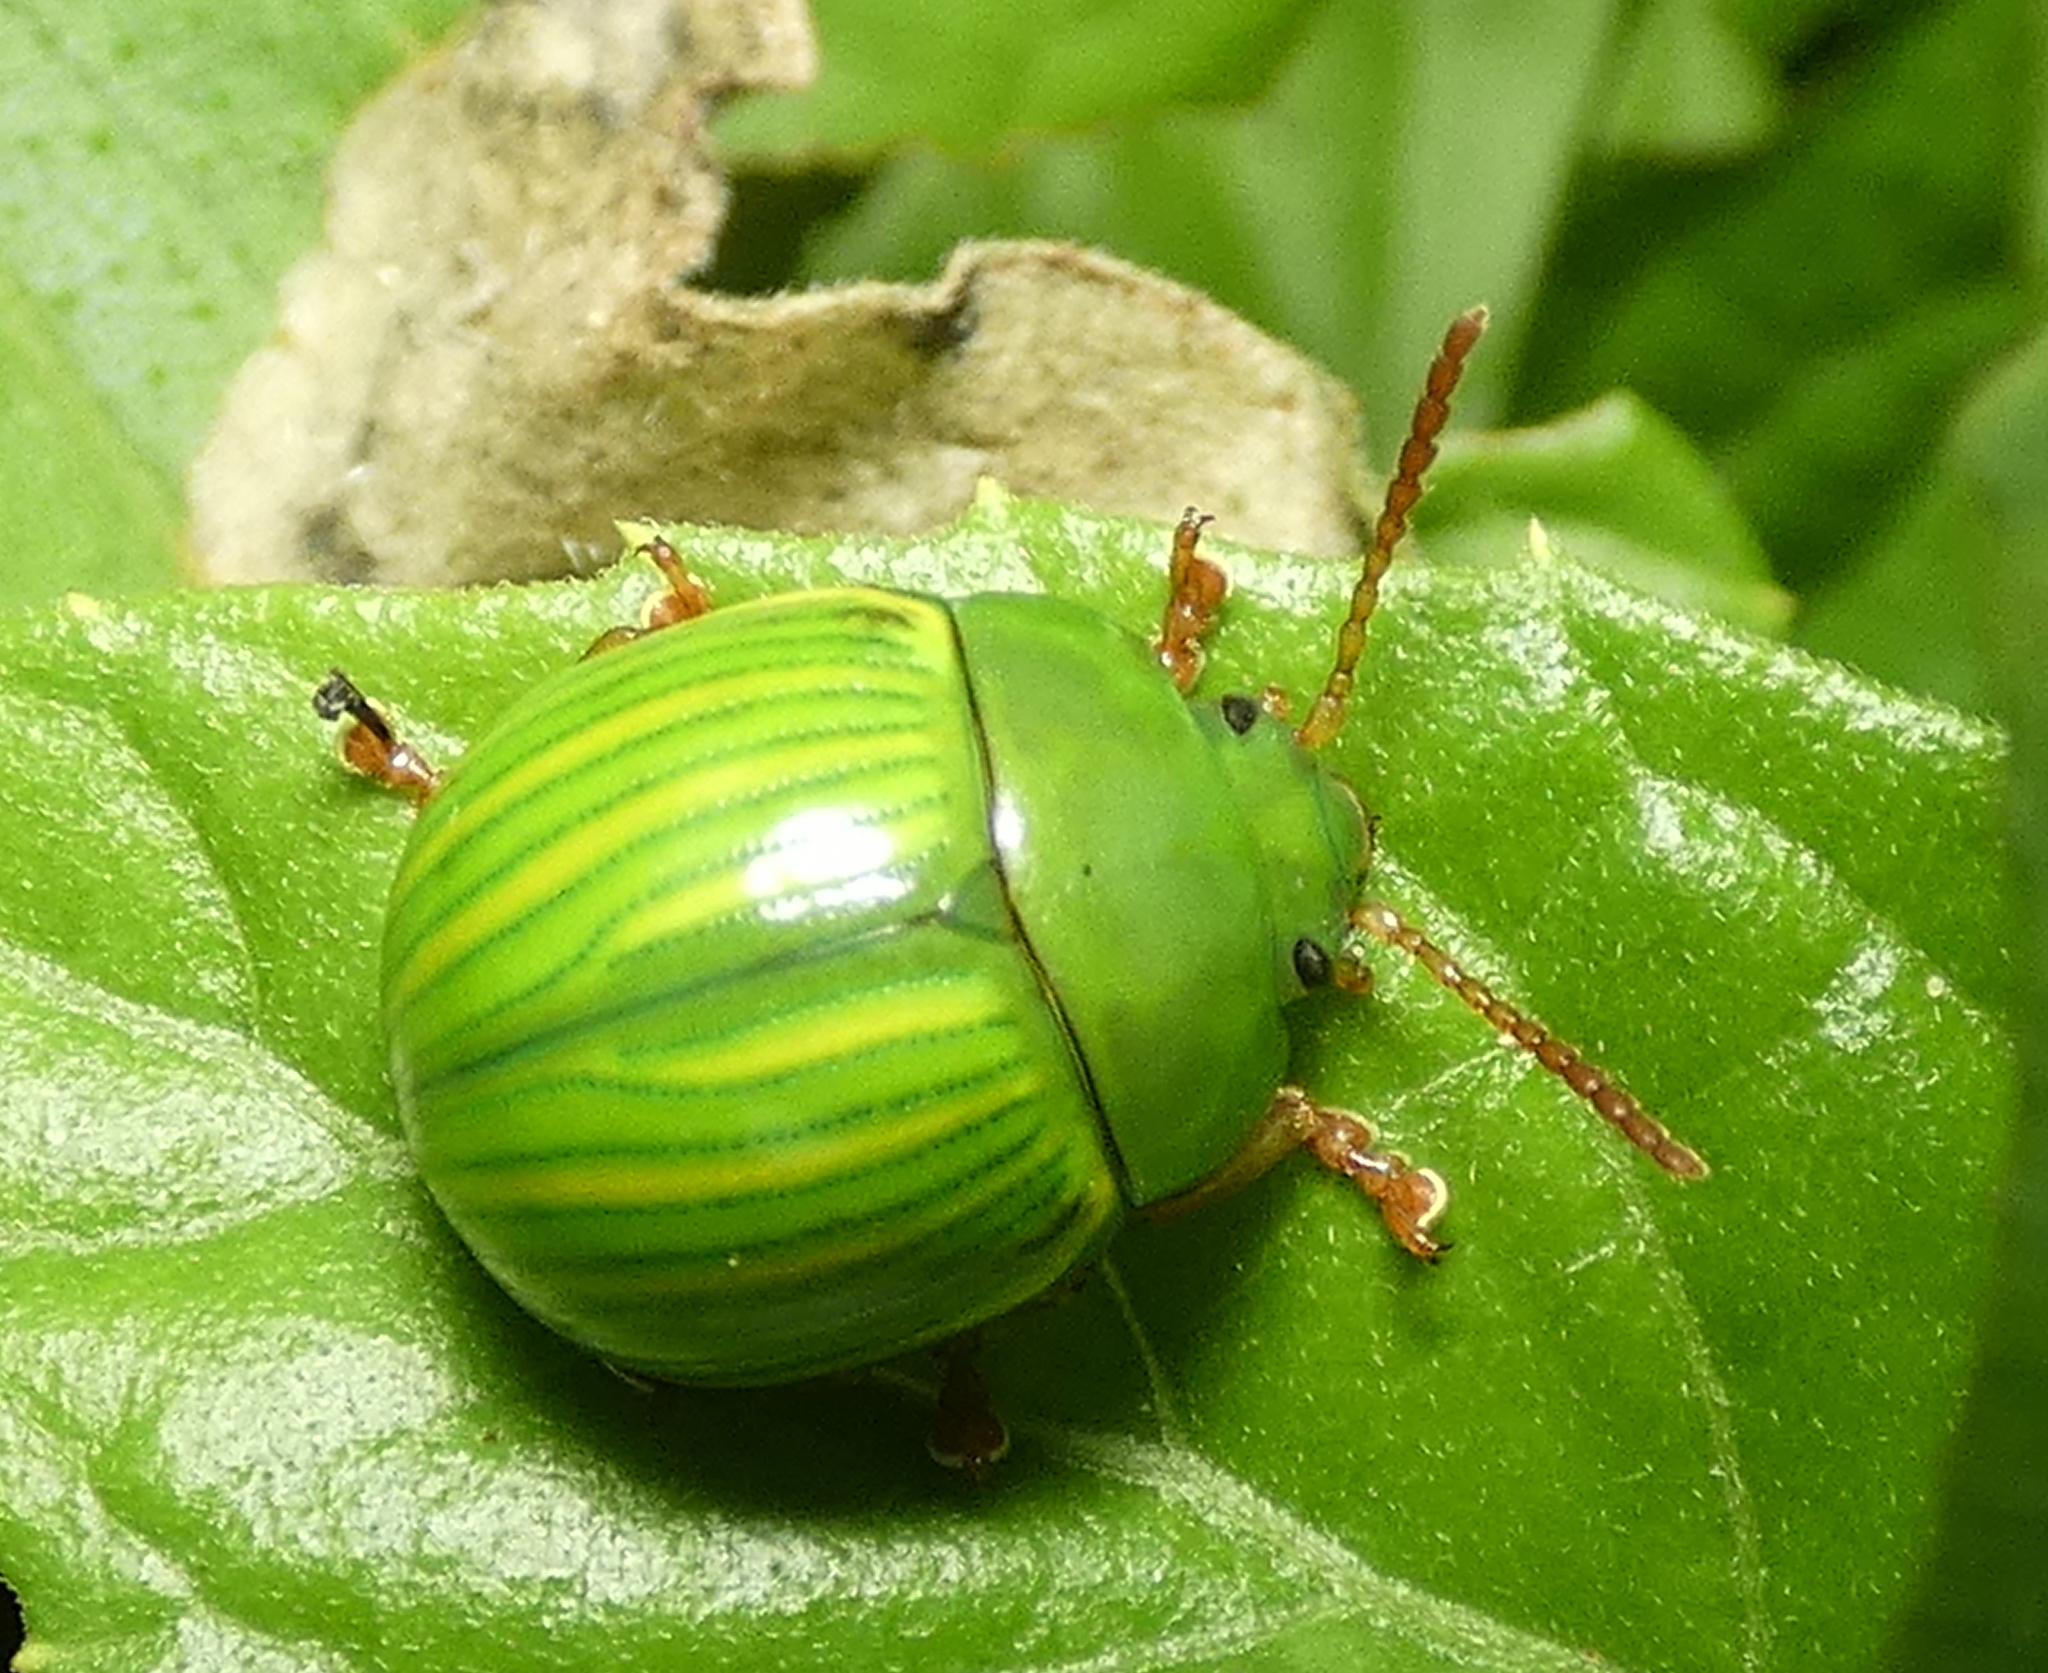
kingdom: Animalia
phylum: Arthropoda
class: Insecta
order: Coleoptera
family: Chrysomelidae
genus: Platyphora
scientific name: Platyphora
